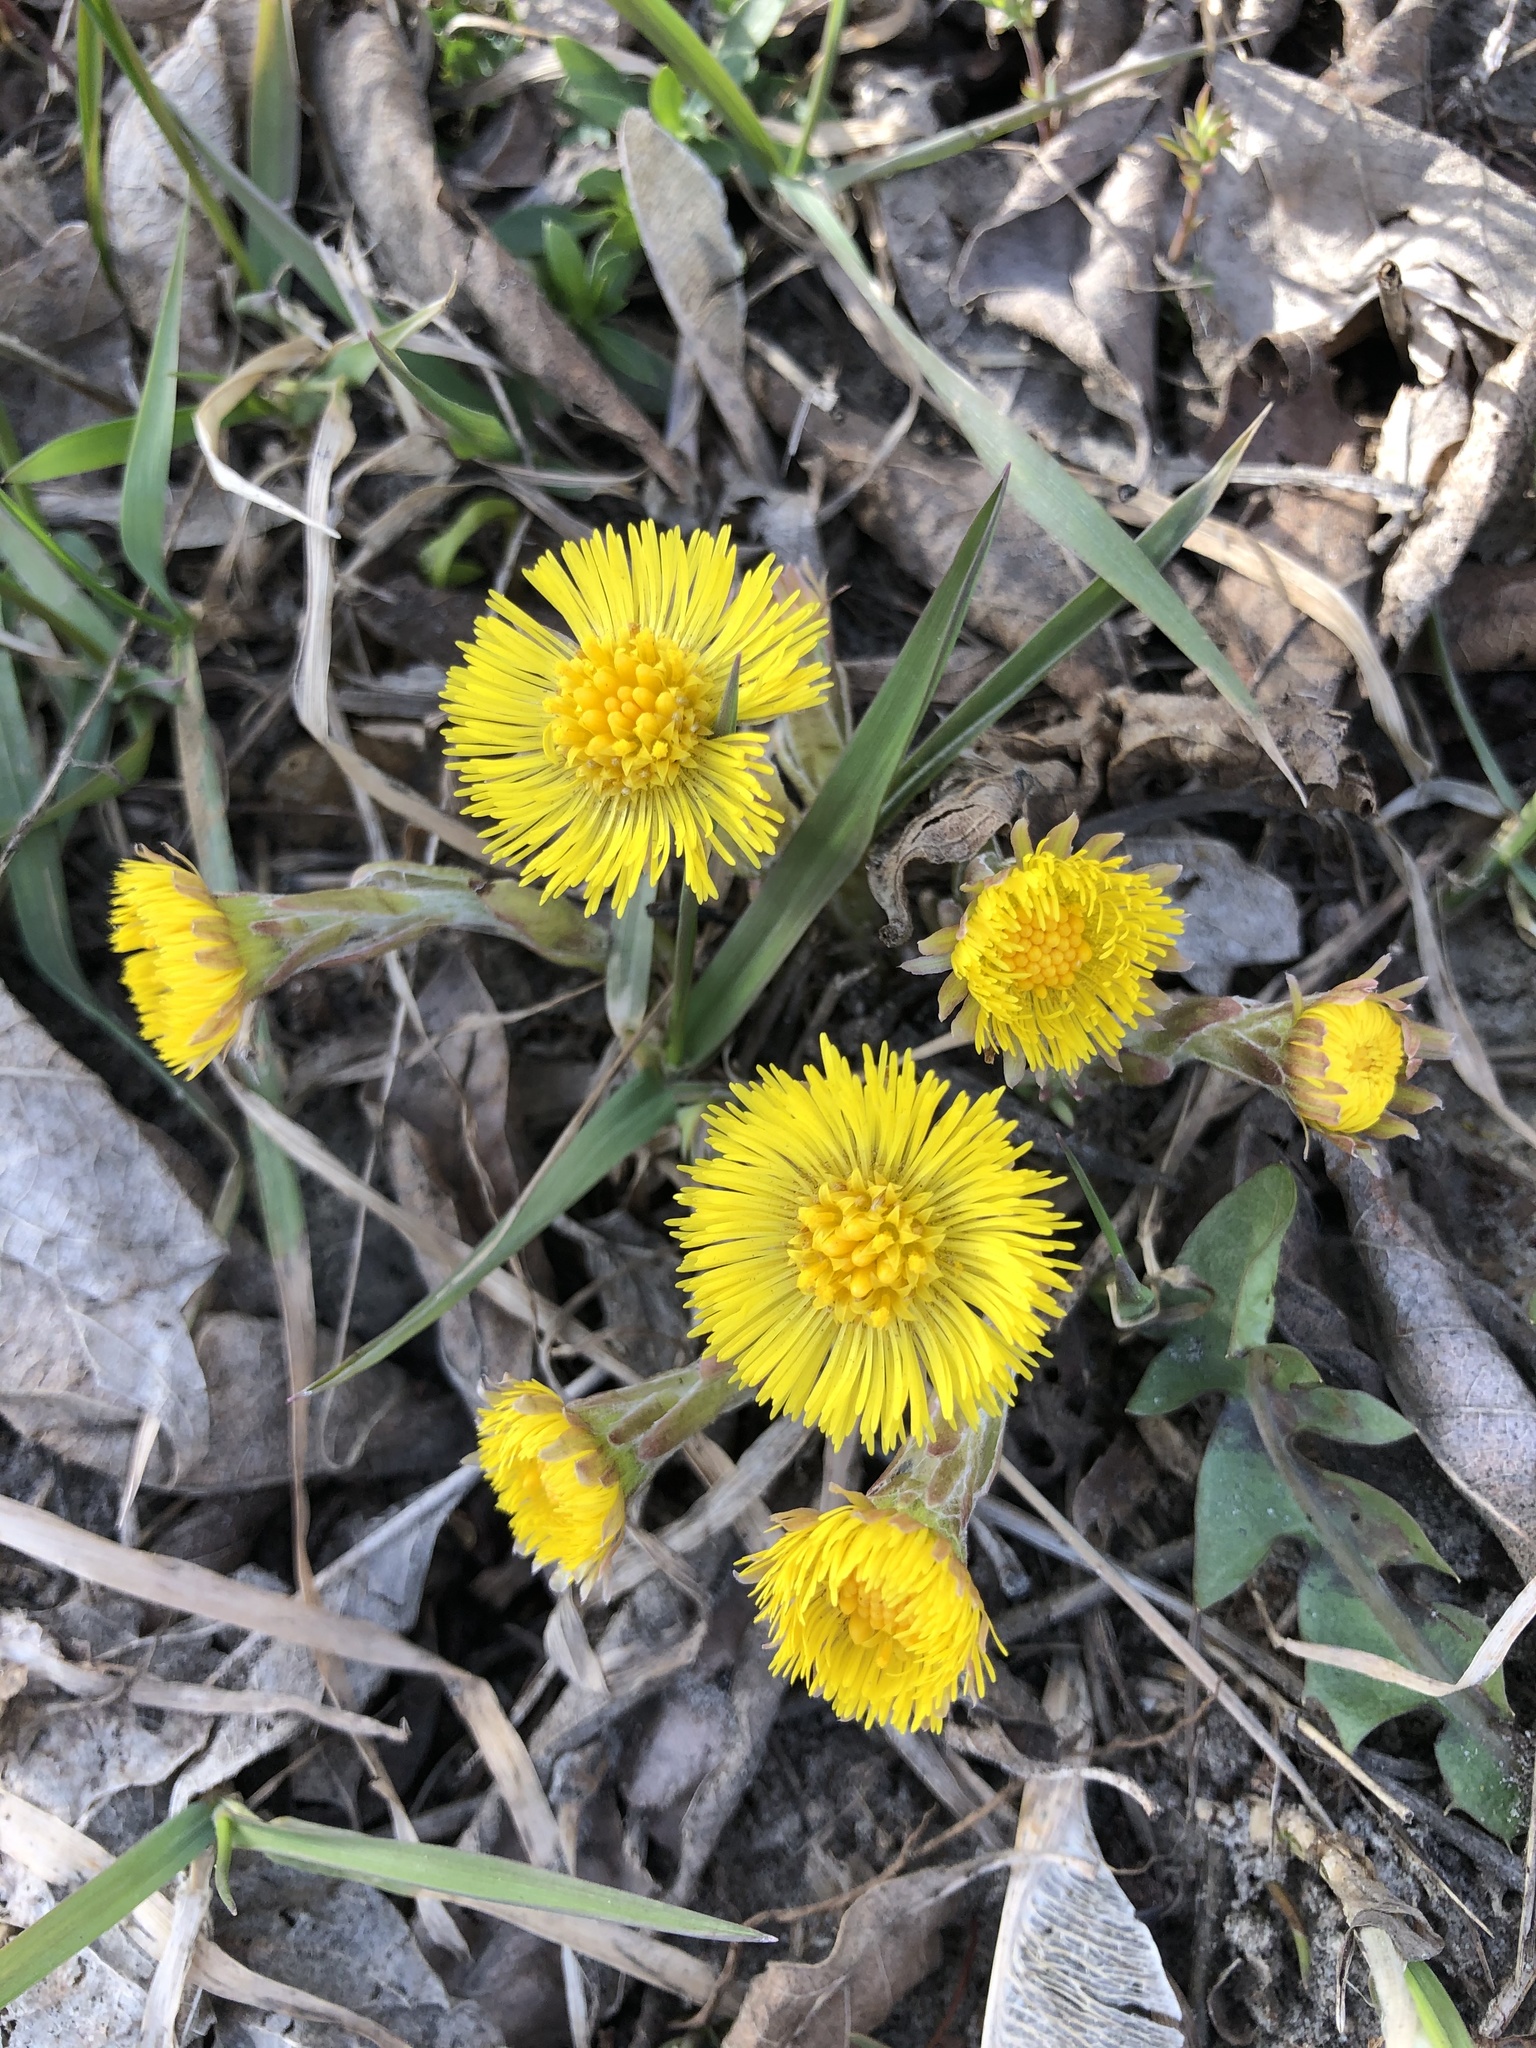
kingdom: Plantae
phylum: Tracheophyta
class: Magnoliopsida
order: Asterales
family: Asteraceae
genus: Tussilago
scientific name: Tussilago farfara
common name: Coltsfoot
